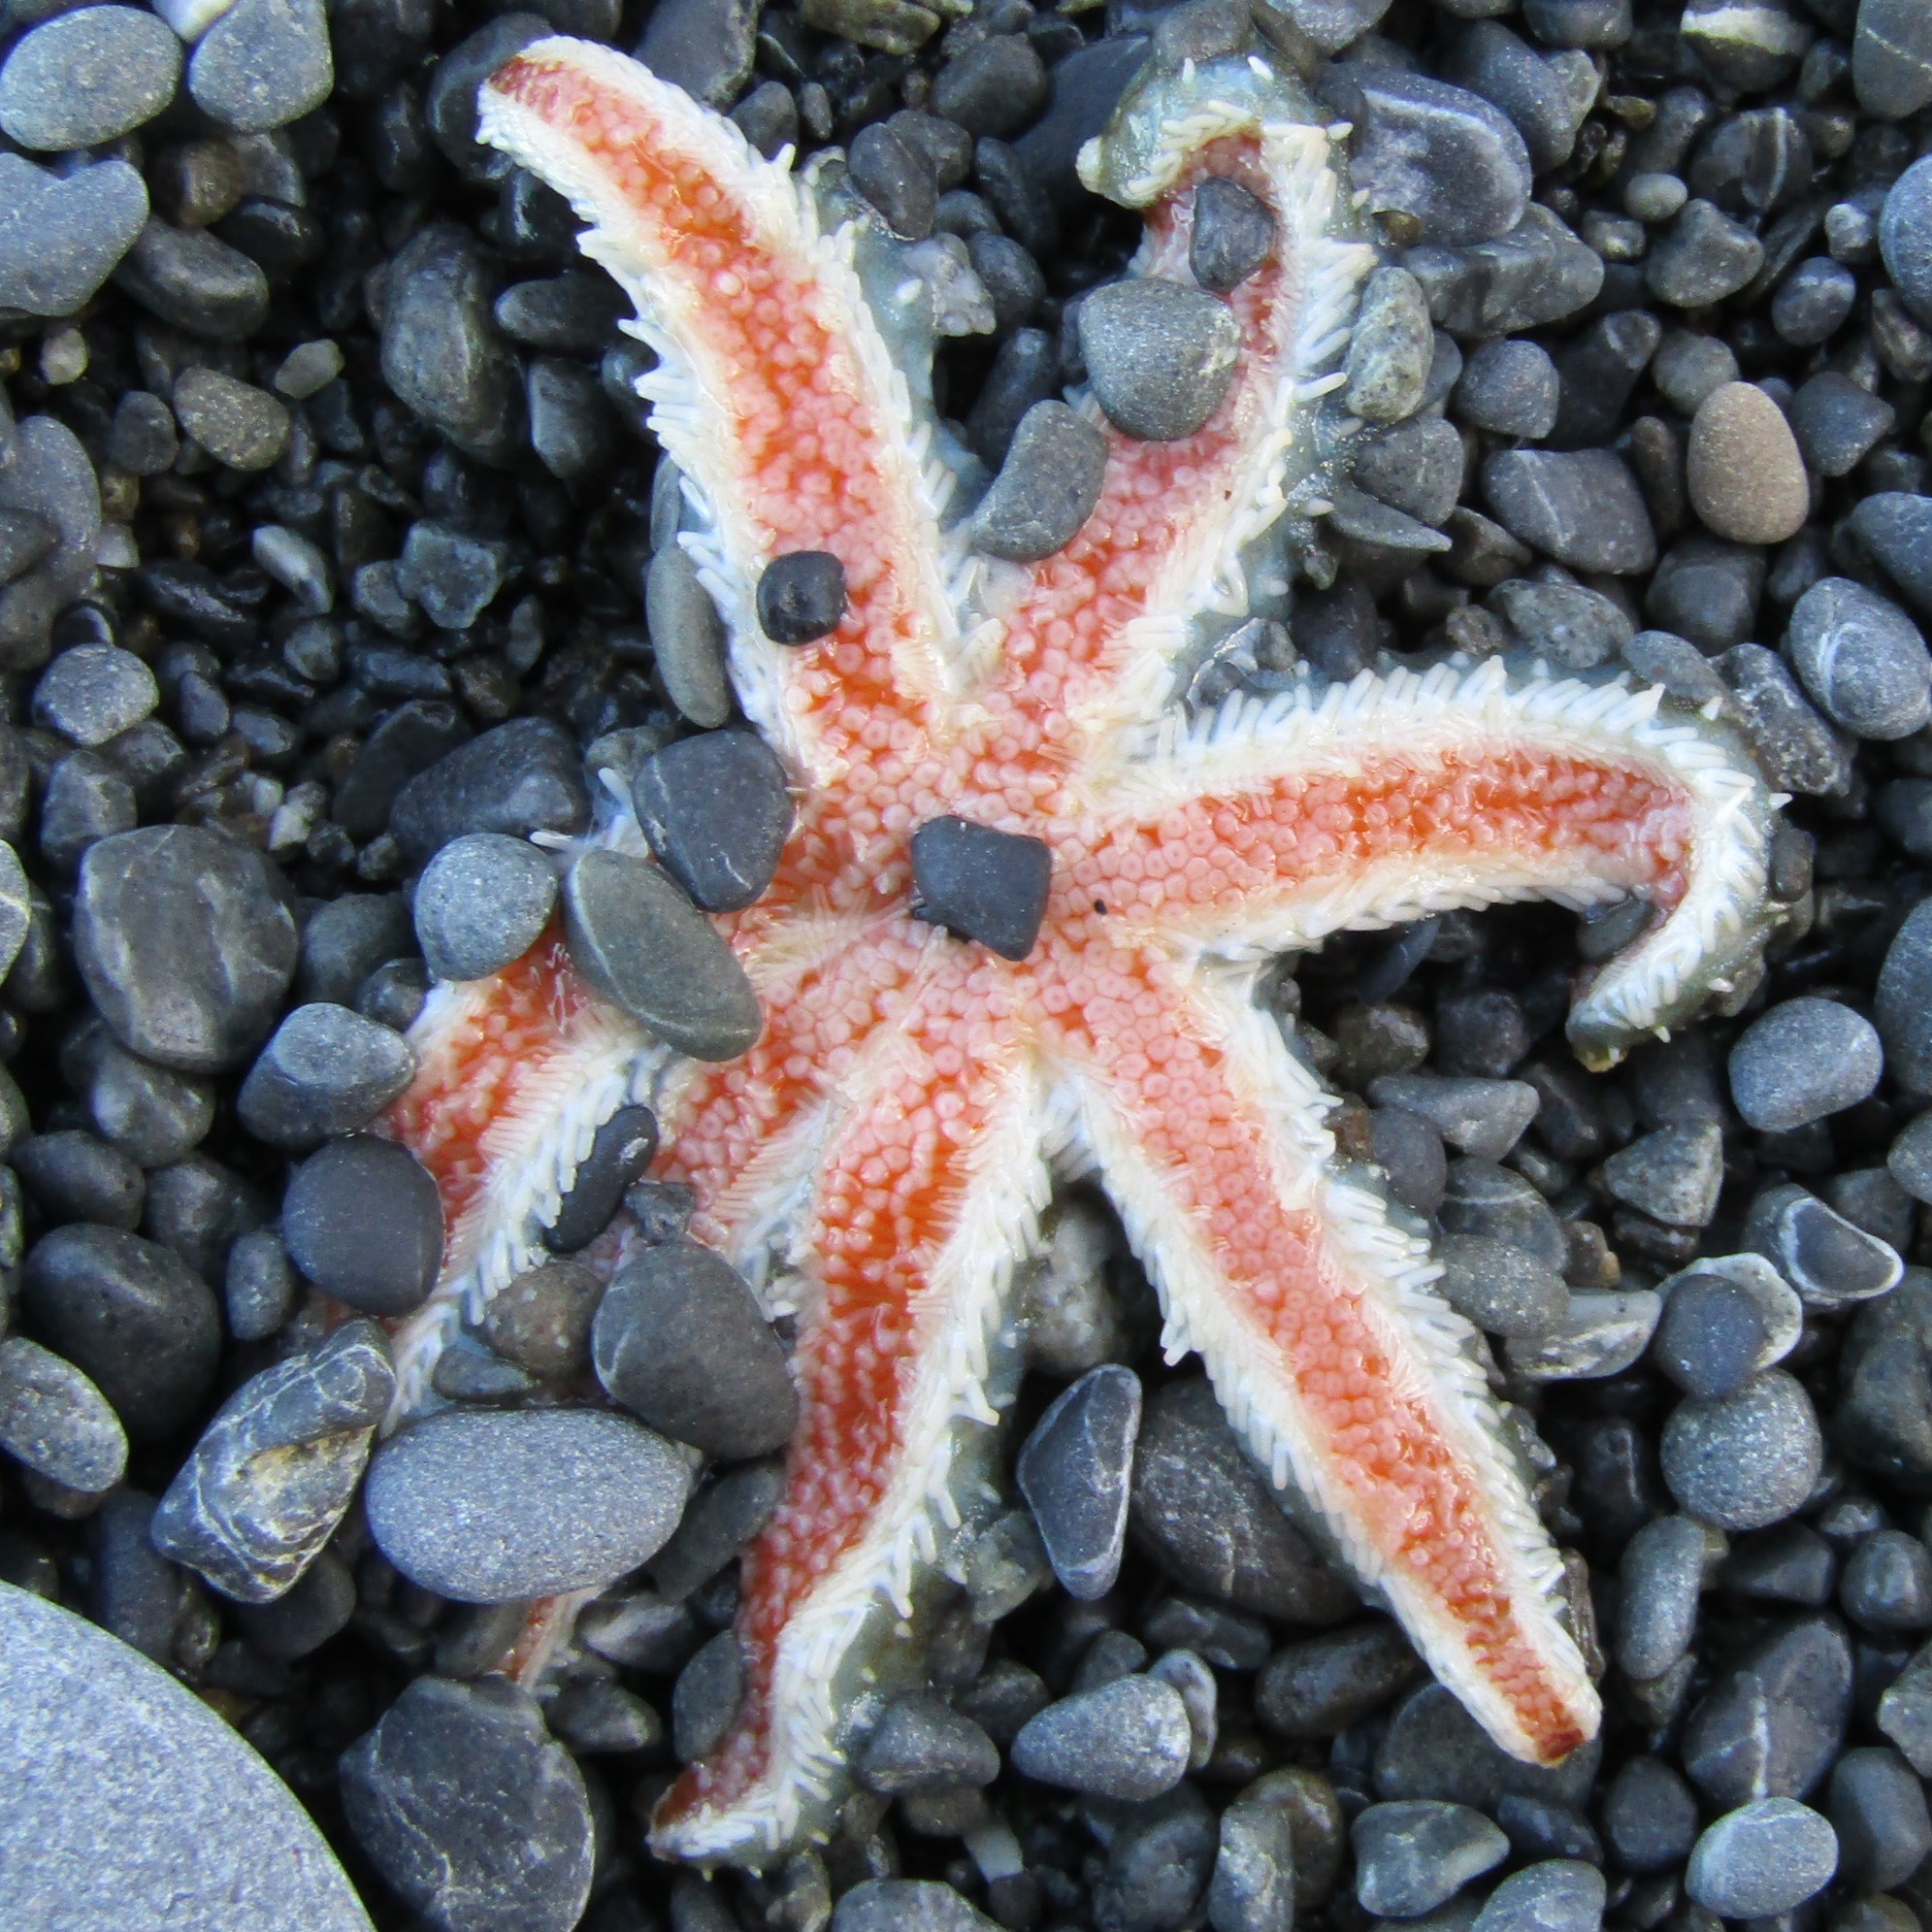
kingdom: Animalia
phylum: Echinodermata
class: Asteroidea
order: Forcipulatida
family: Asteriidae
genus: Astrostole
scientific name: Astrostole scabra
